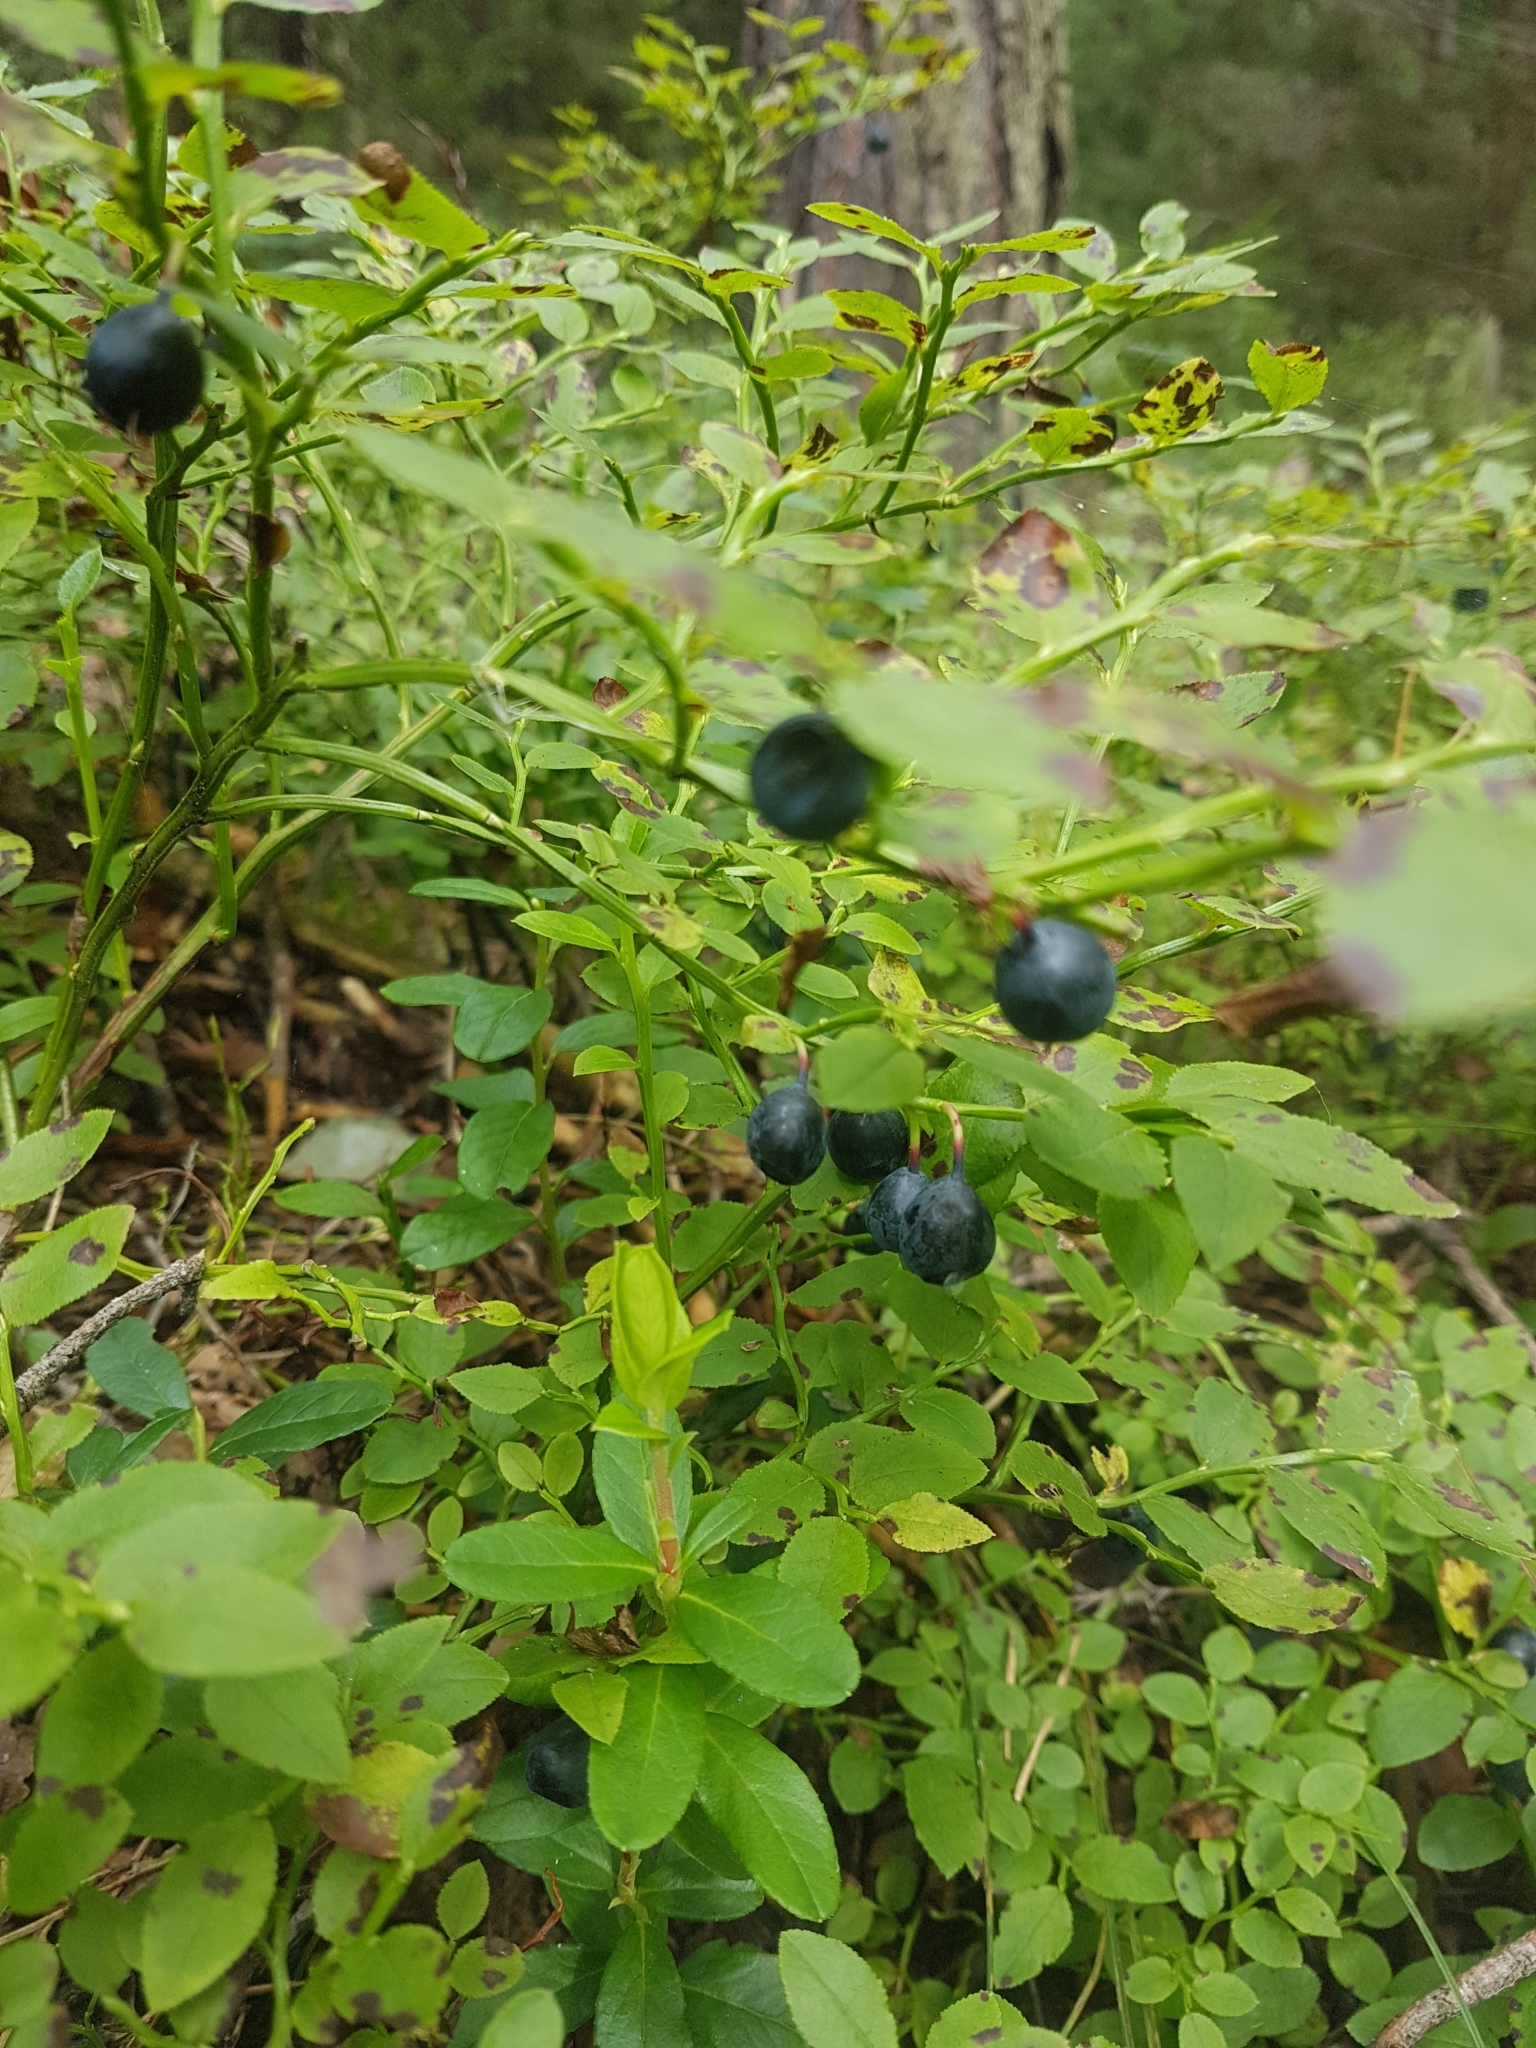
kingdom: Plantae
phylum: Tracheophyta
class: Magnoliopsida
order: Ericales
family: Ericaceae
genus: Vaccinium
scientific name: Vaccinium myrtillus
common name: Bilberry
